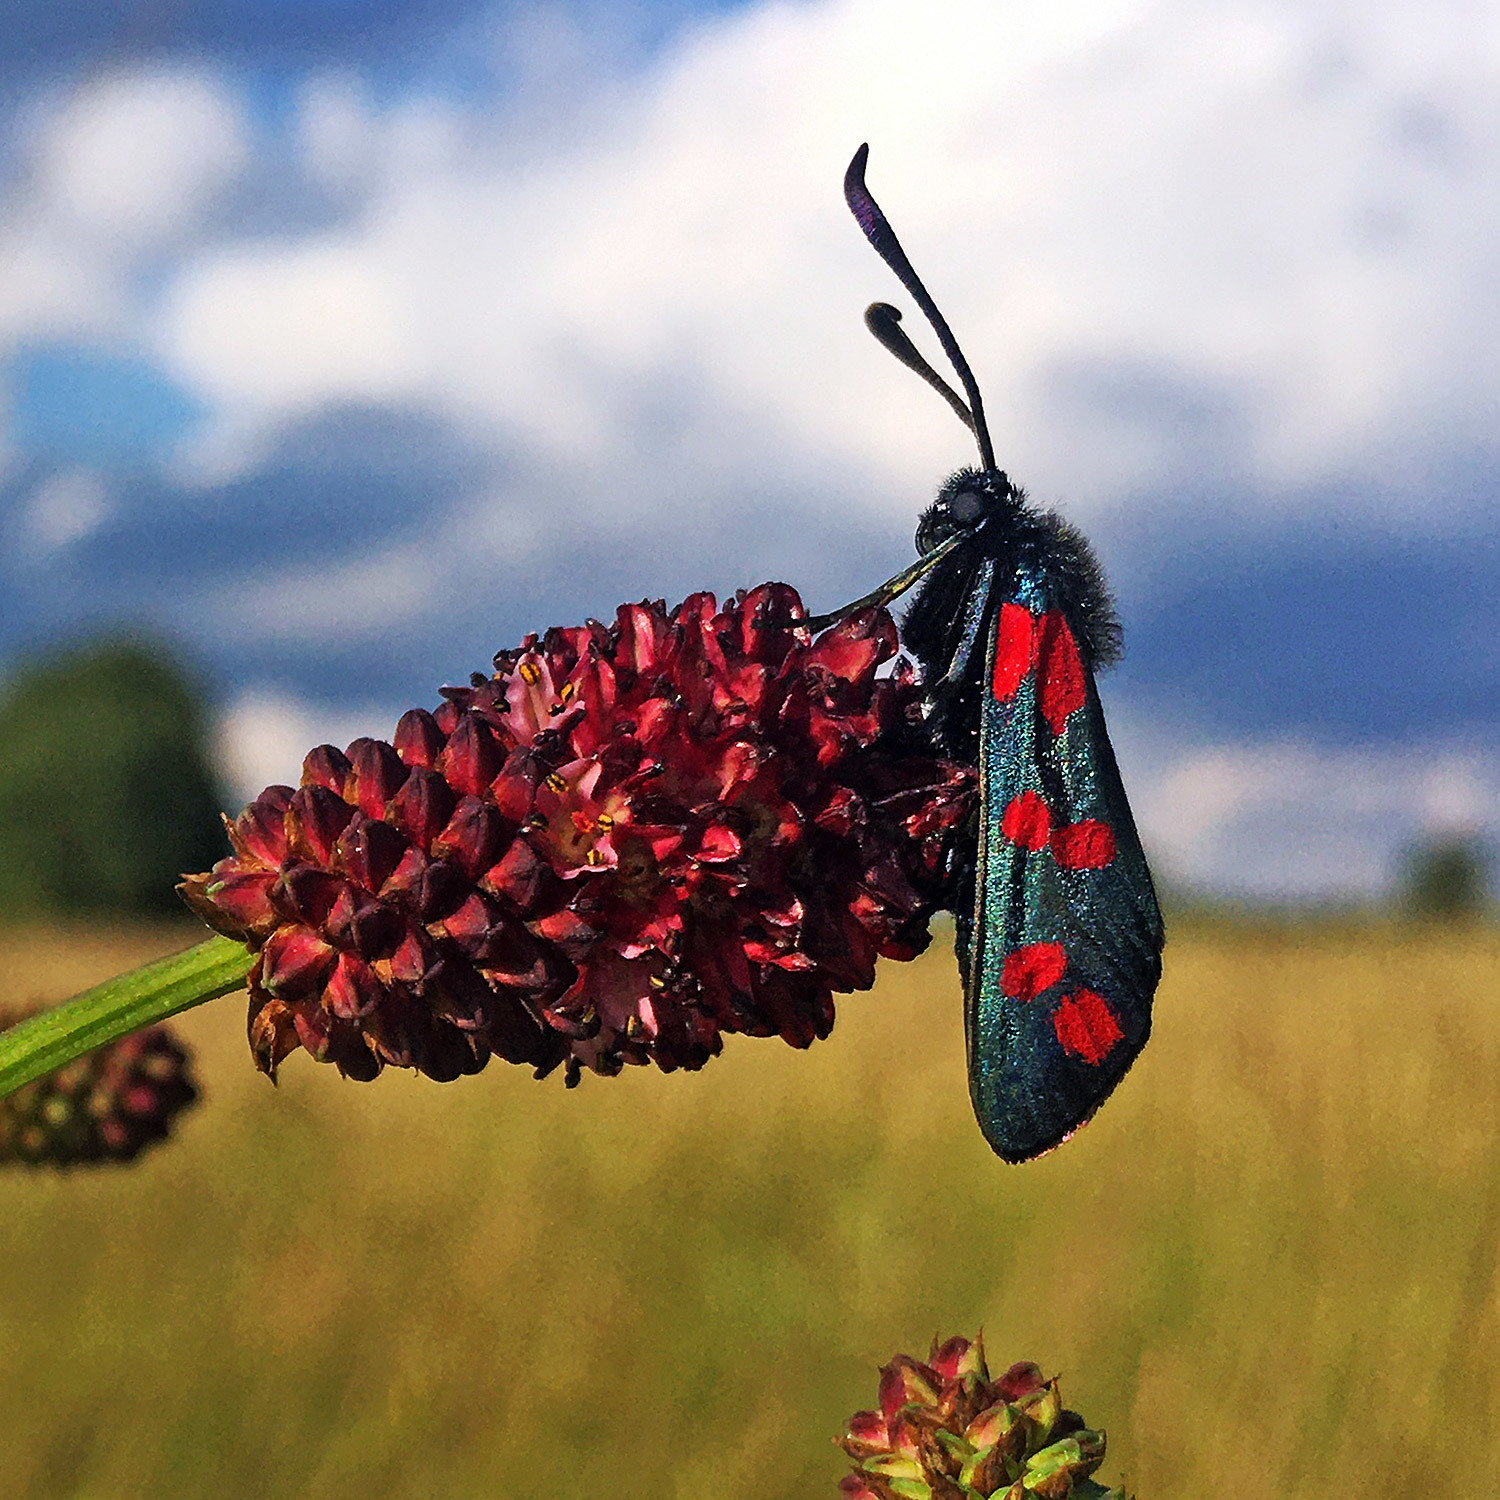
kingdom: Animalia
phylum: Arthropoda
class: Insecta
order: Lepidoptera
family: Zygaenidae
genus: Zygaena
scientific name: Zygaena filipendulae
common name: Six-spot burnet
